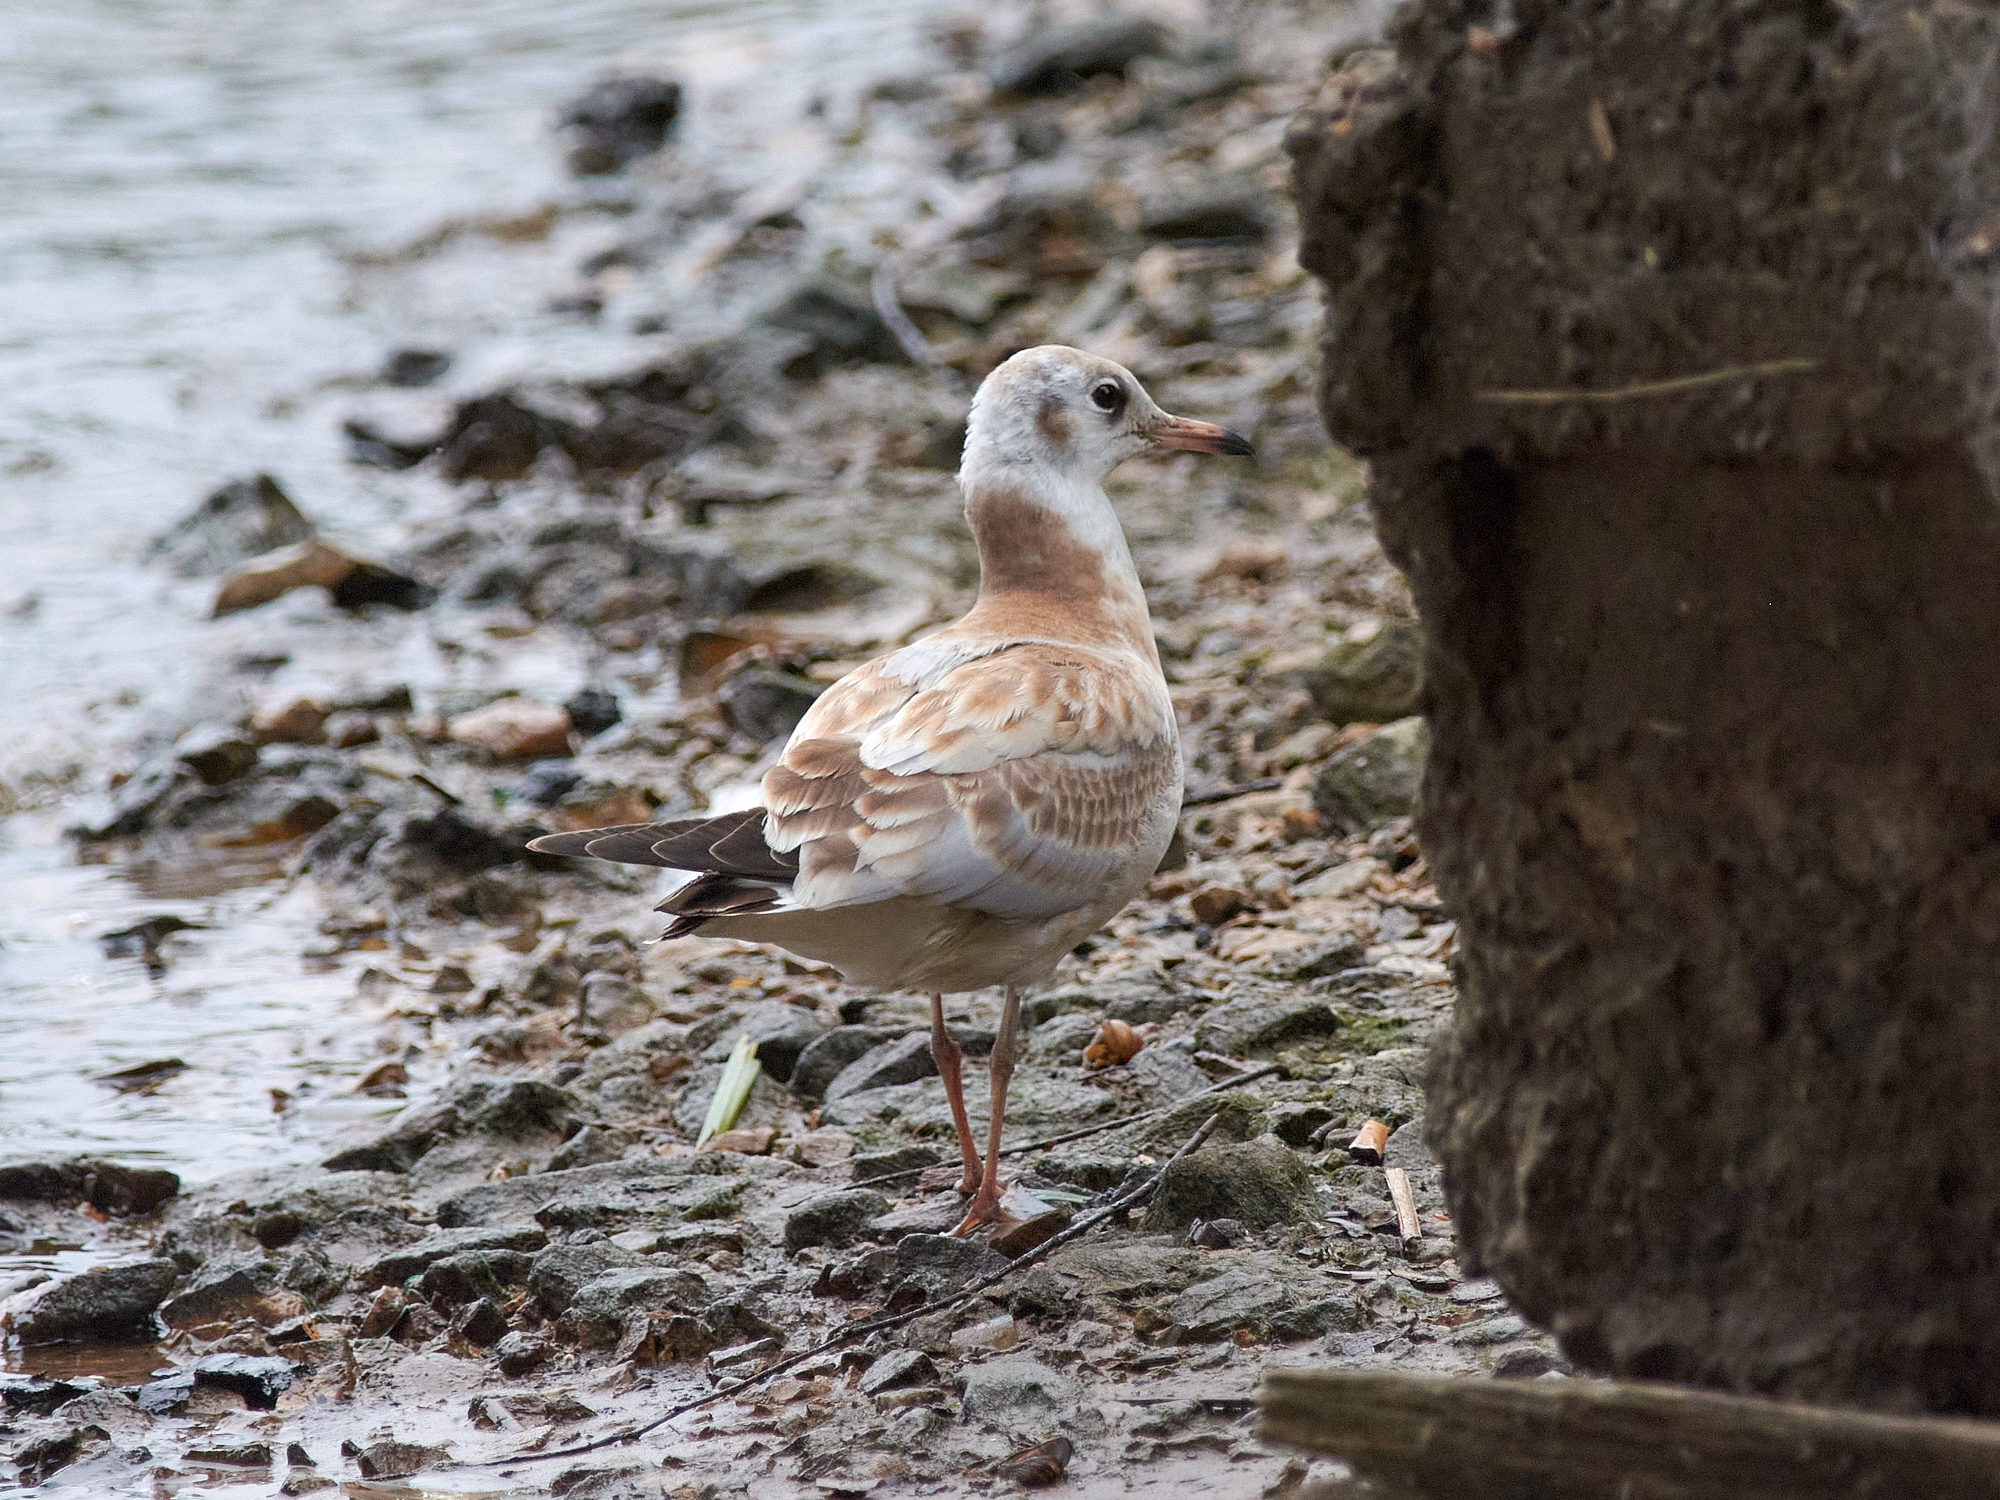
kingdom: Animalia
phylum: Chordata
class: Aves
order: Charadriiformes
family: Laridae
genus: Chroicocephalus
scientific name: Chroicocephalus ridibundus
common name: Black-headed gull
